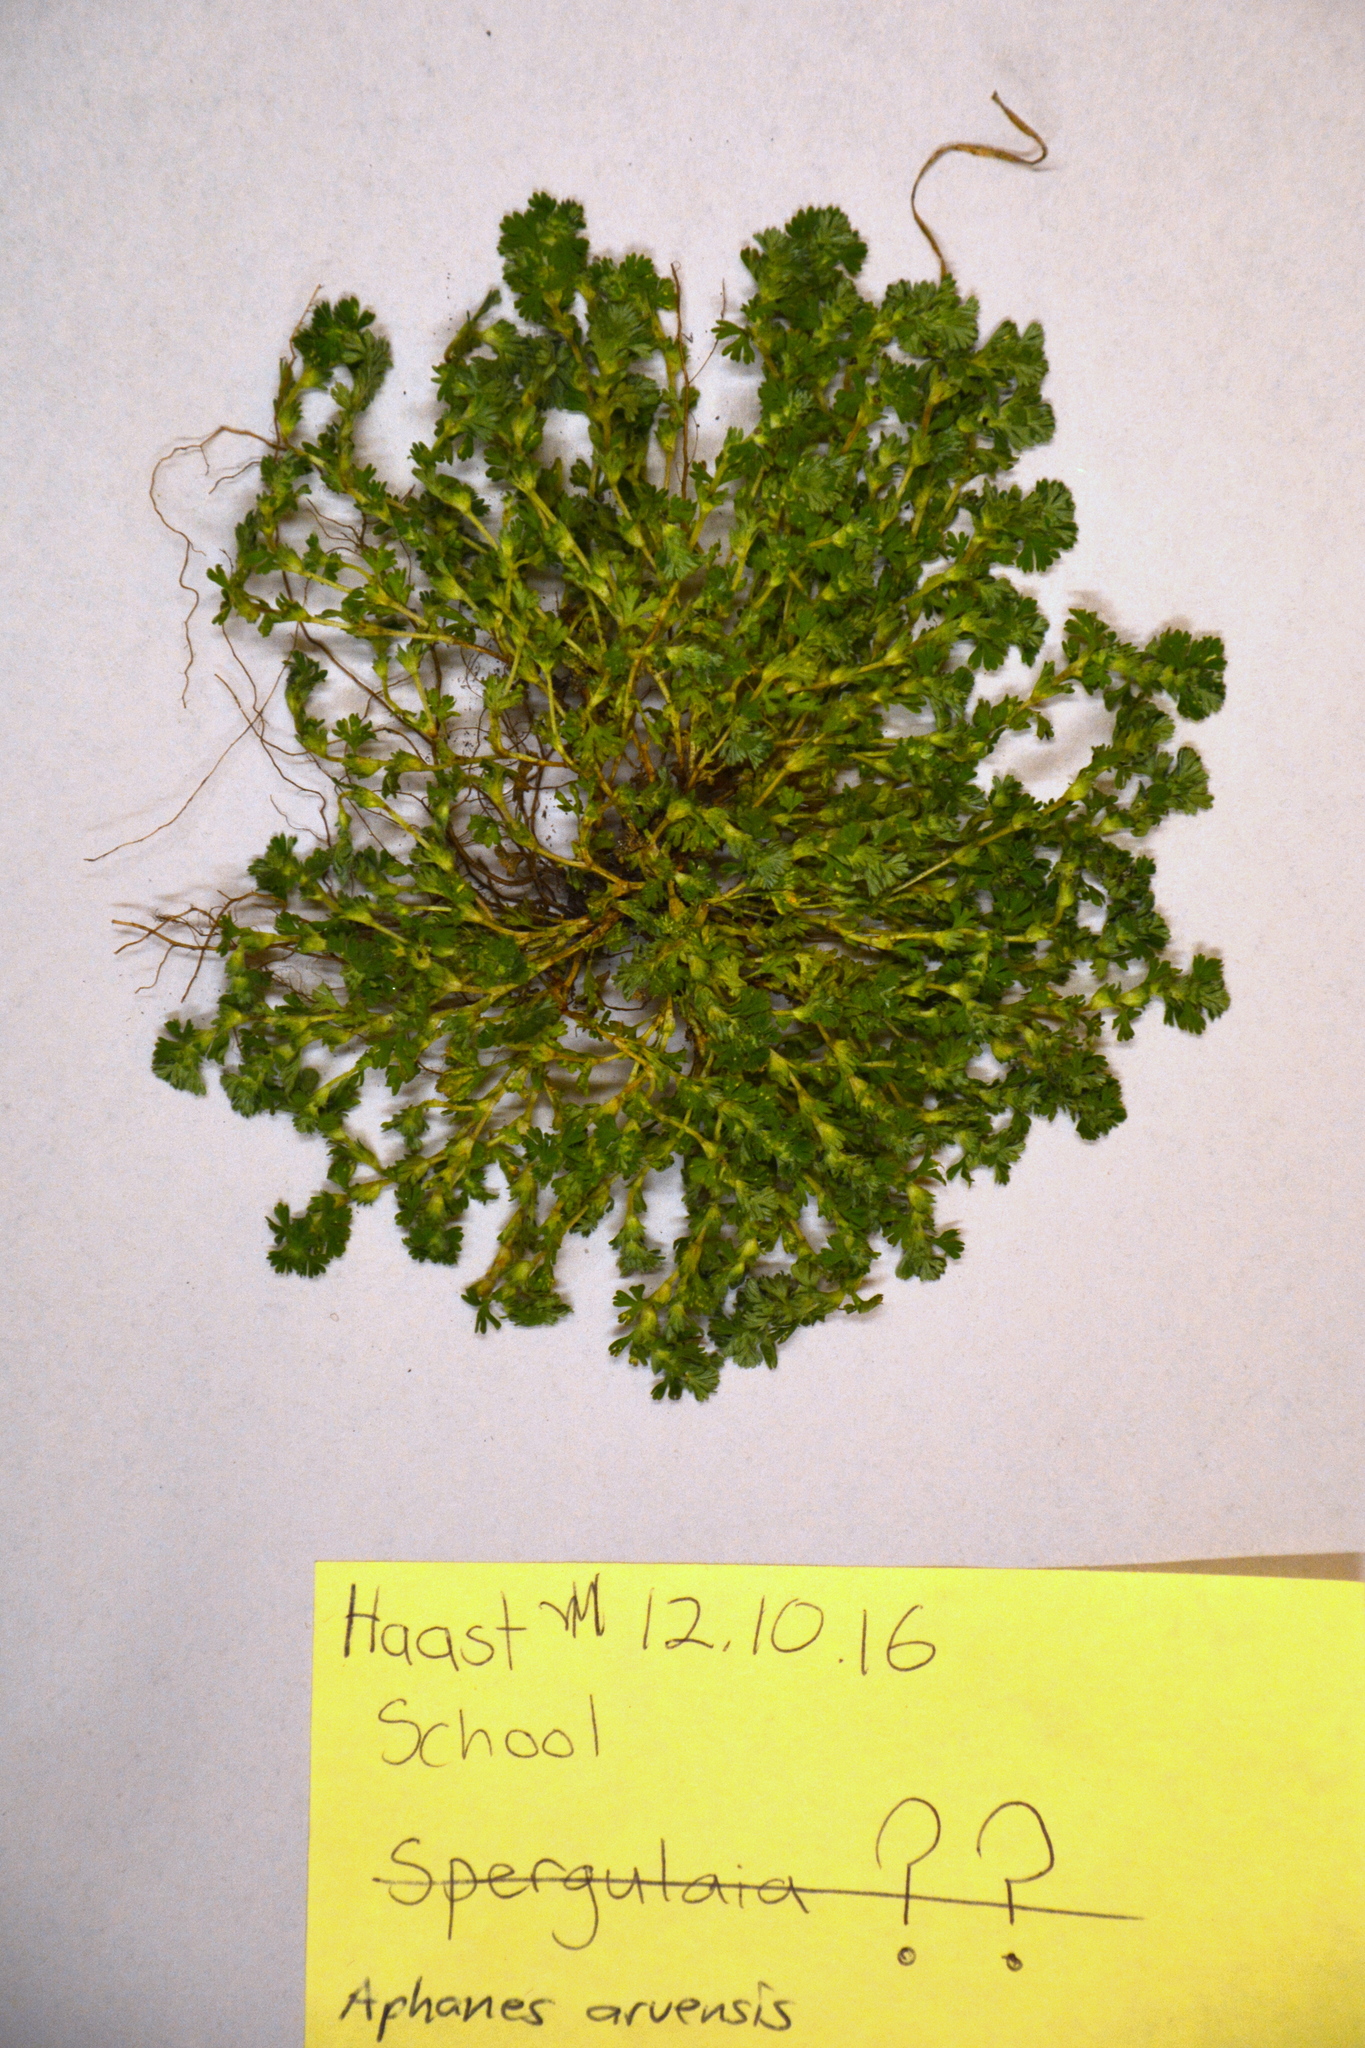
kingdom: Plantae
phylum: Tracheophyta
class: Magnoliopsida
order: Rosales
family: Rosaceae
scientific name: Rosaceae
